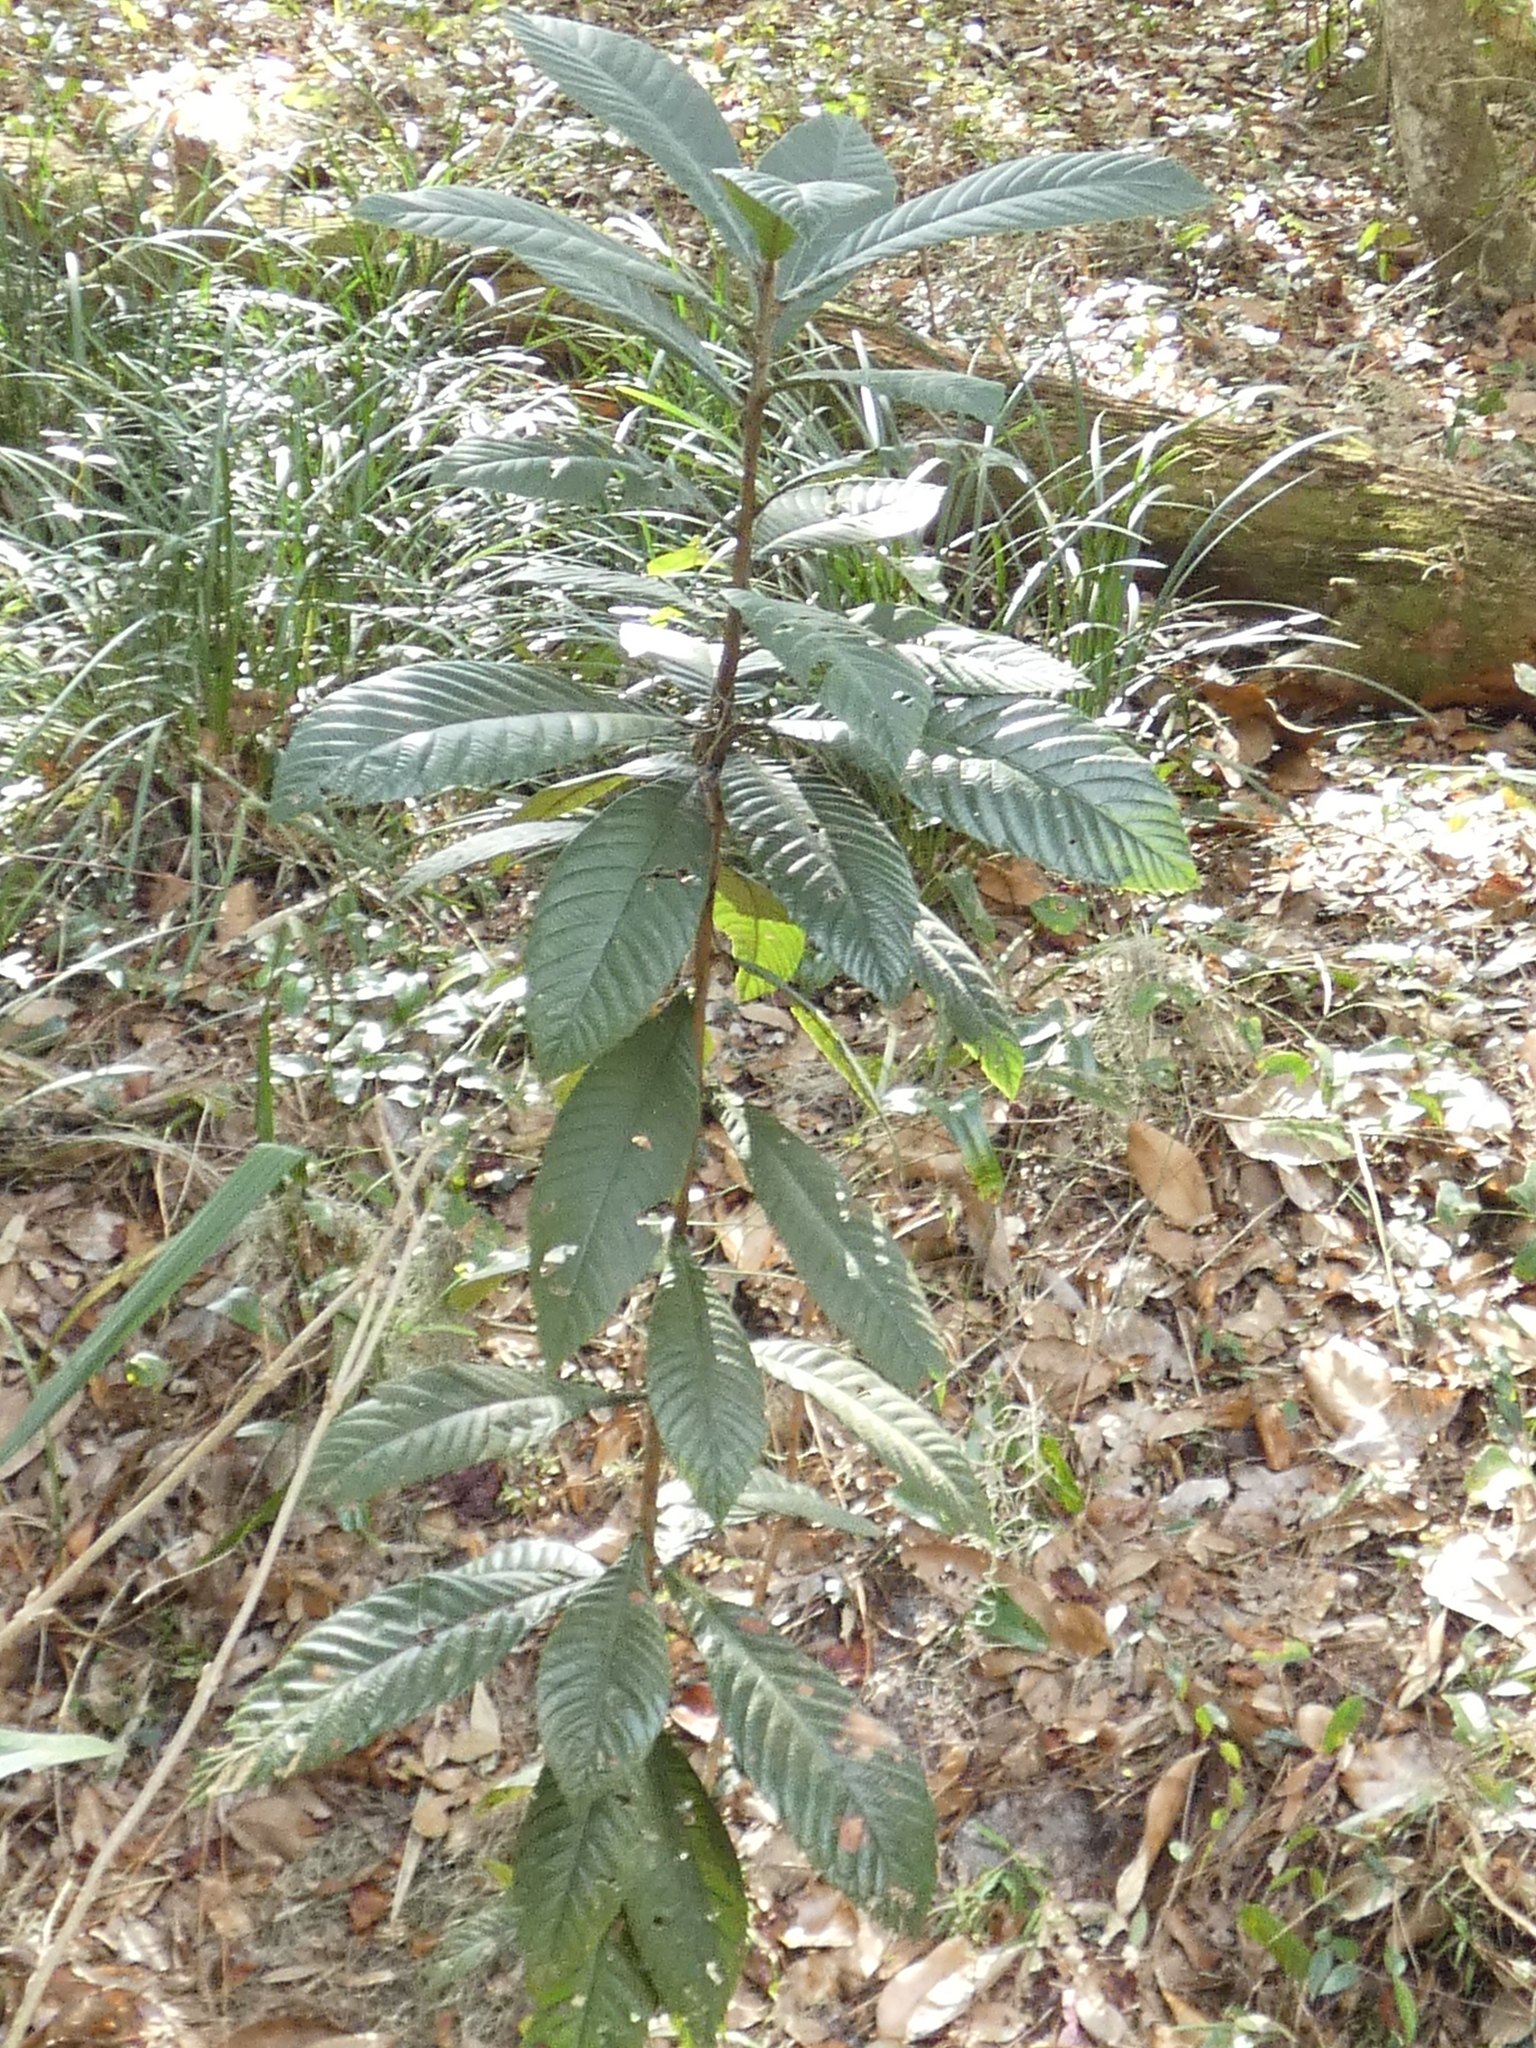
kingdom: Plantae
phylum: Tracheophyta
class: Magnoliopsida
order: Rosales
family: Rosaceae
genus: Rhaphiolepis
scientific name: Rhaphiolepis bibas
